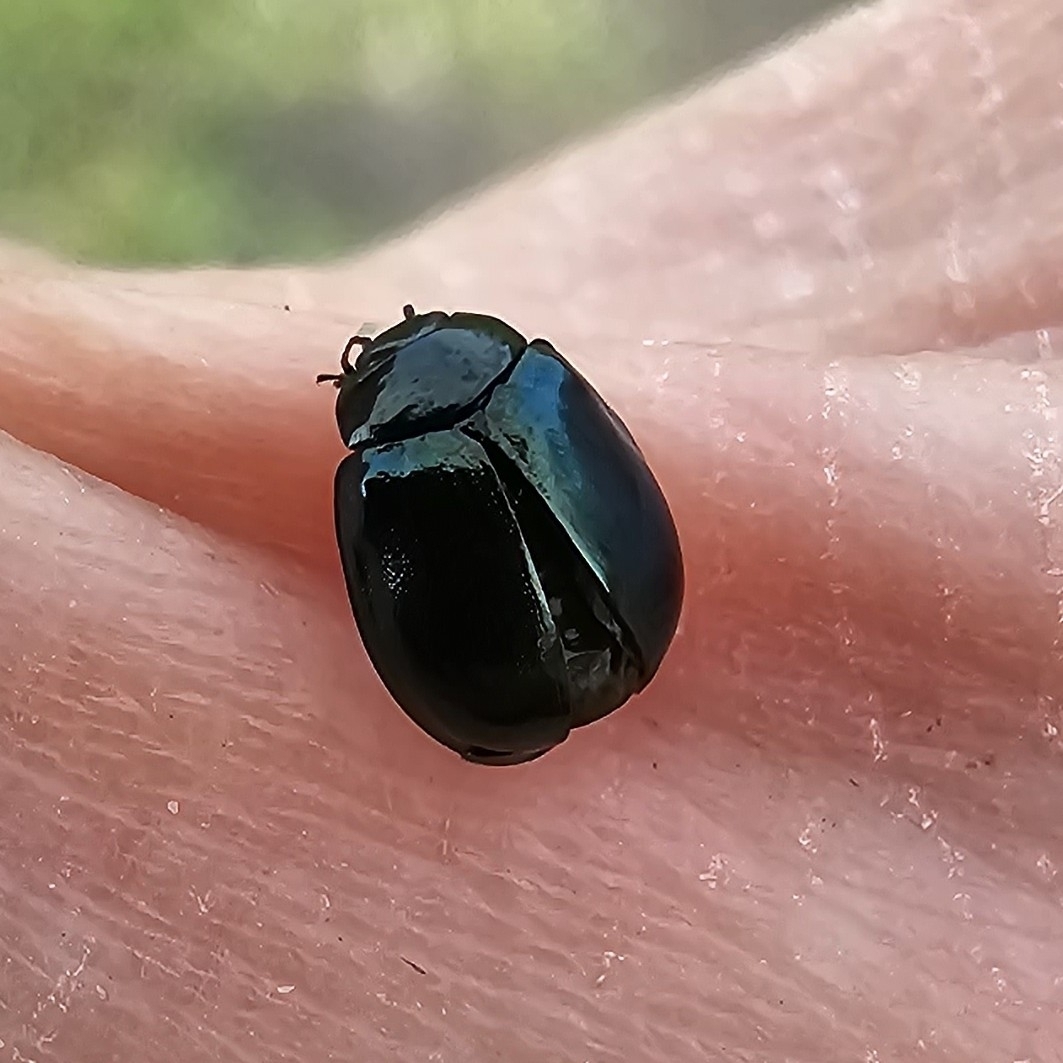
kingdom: Animalia
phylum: Arthropoda
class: Insecta
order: Coleoptera
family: Chrysomelidae
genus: Plagiodera
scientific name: Plagiodera versicolora
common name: Imported willow leaf beetle
